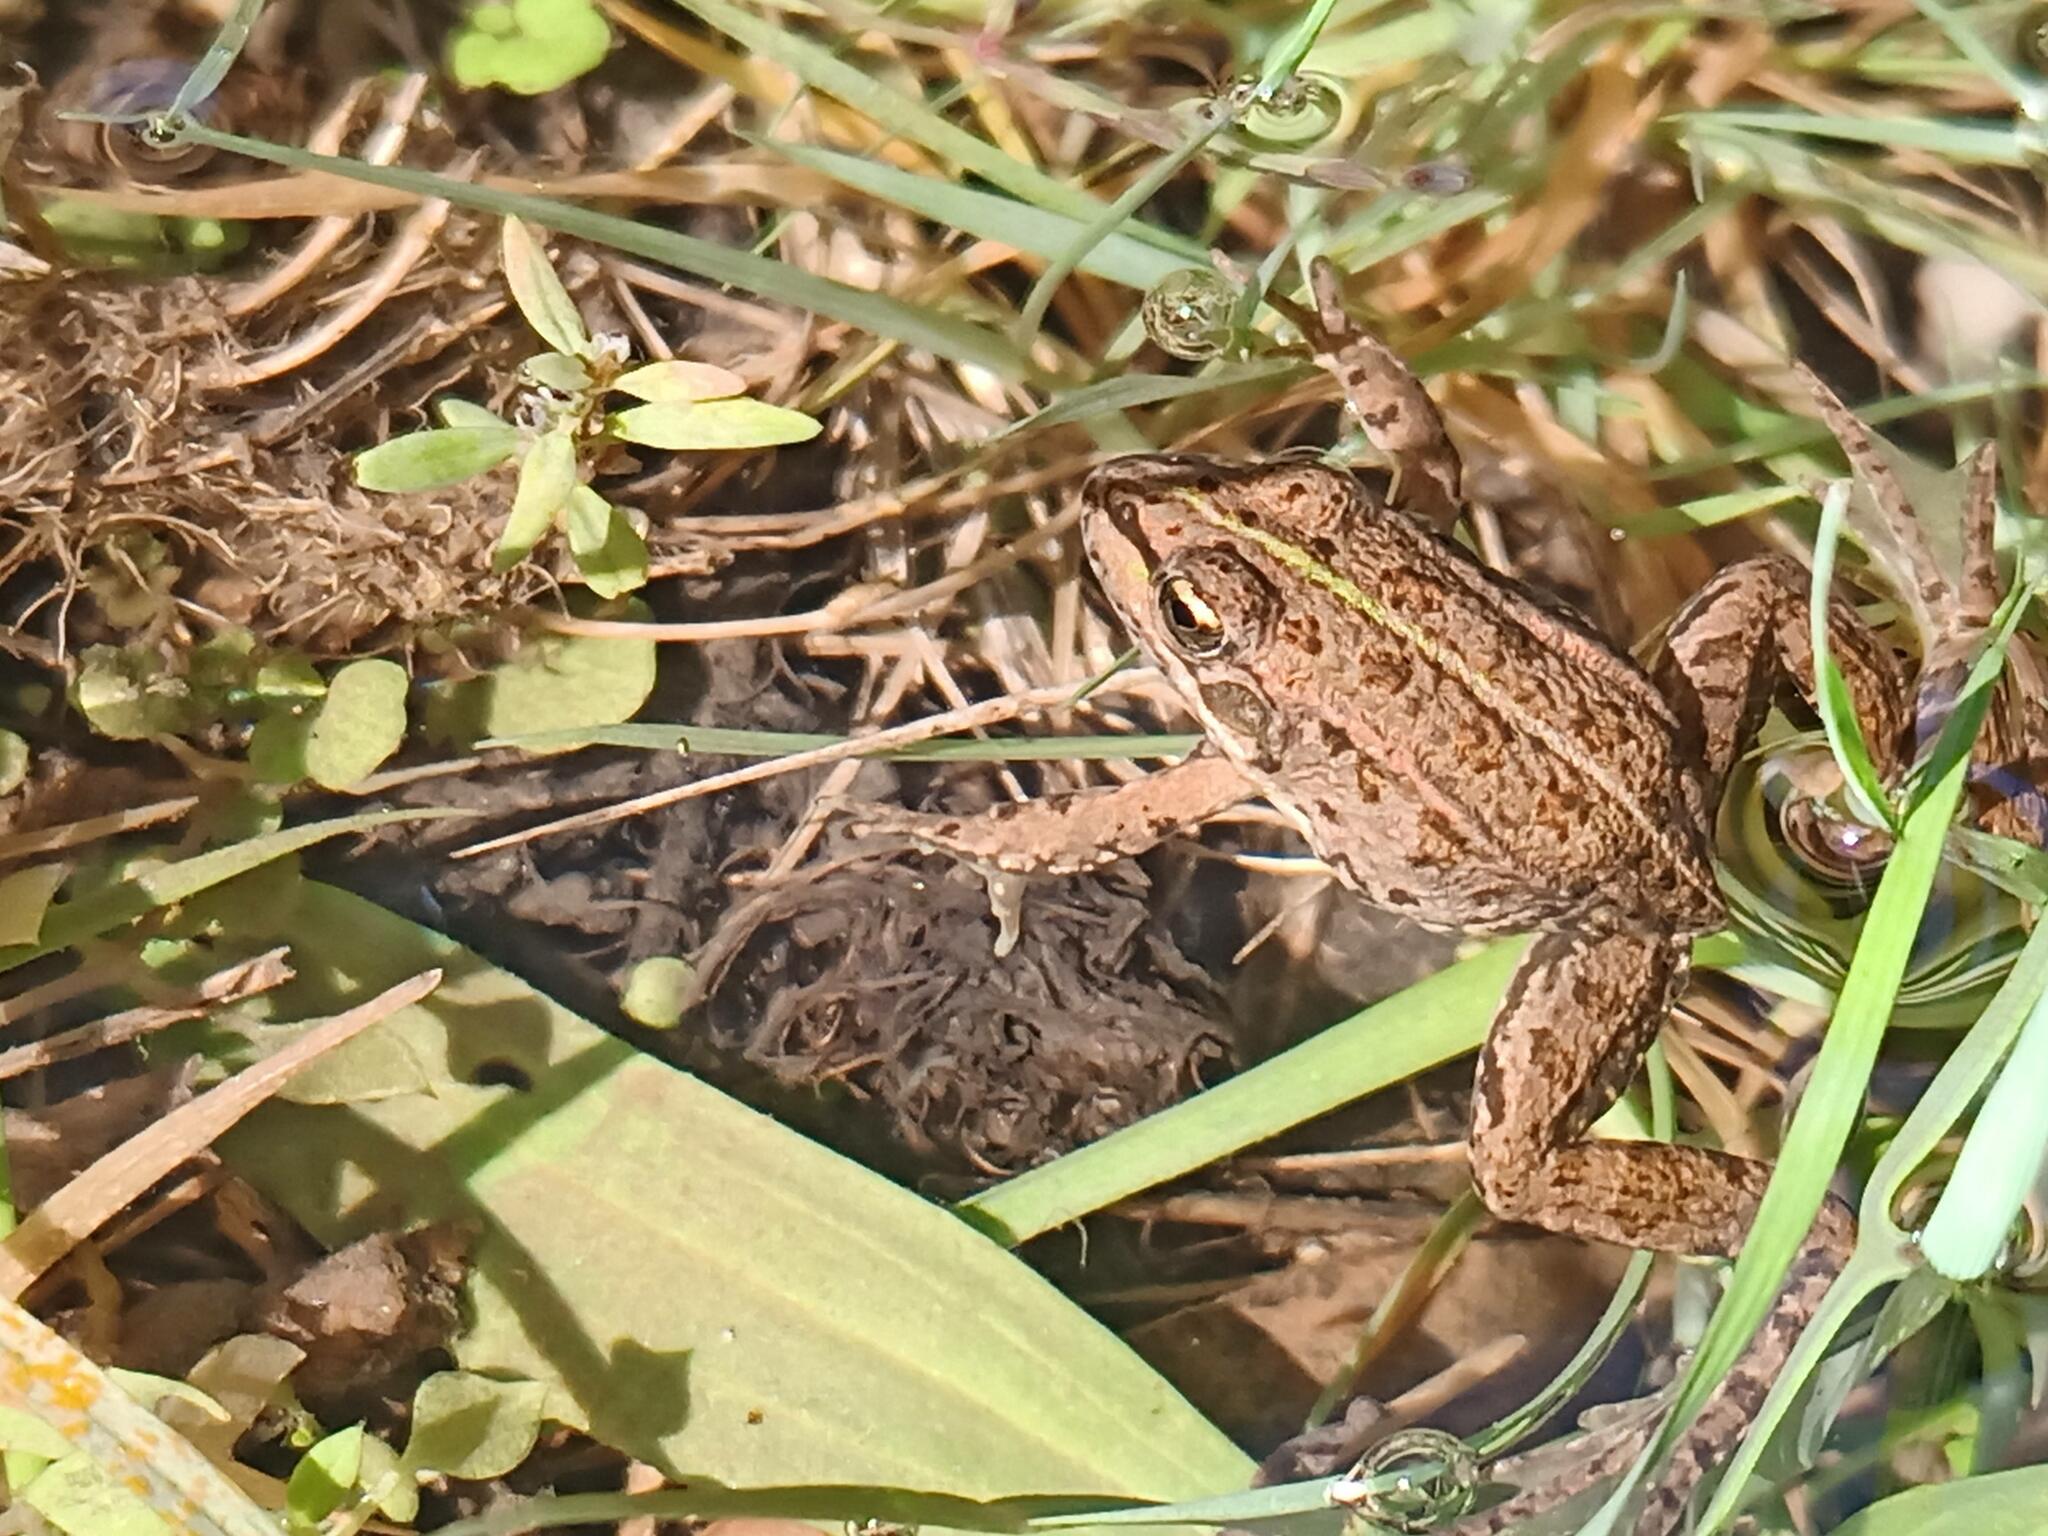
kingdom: Animalia
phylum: Chordata
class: Amphibia
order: Anura
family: Ranidae
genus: Pelophylax
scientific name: Pelophylax perezi
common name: Perez's frog
